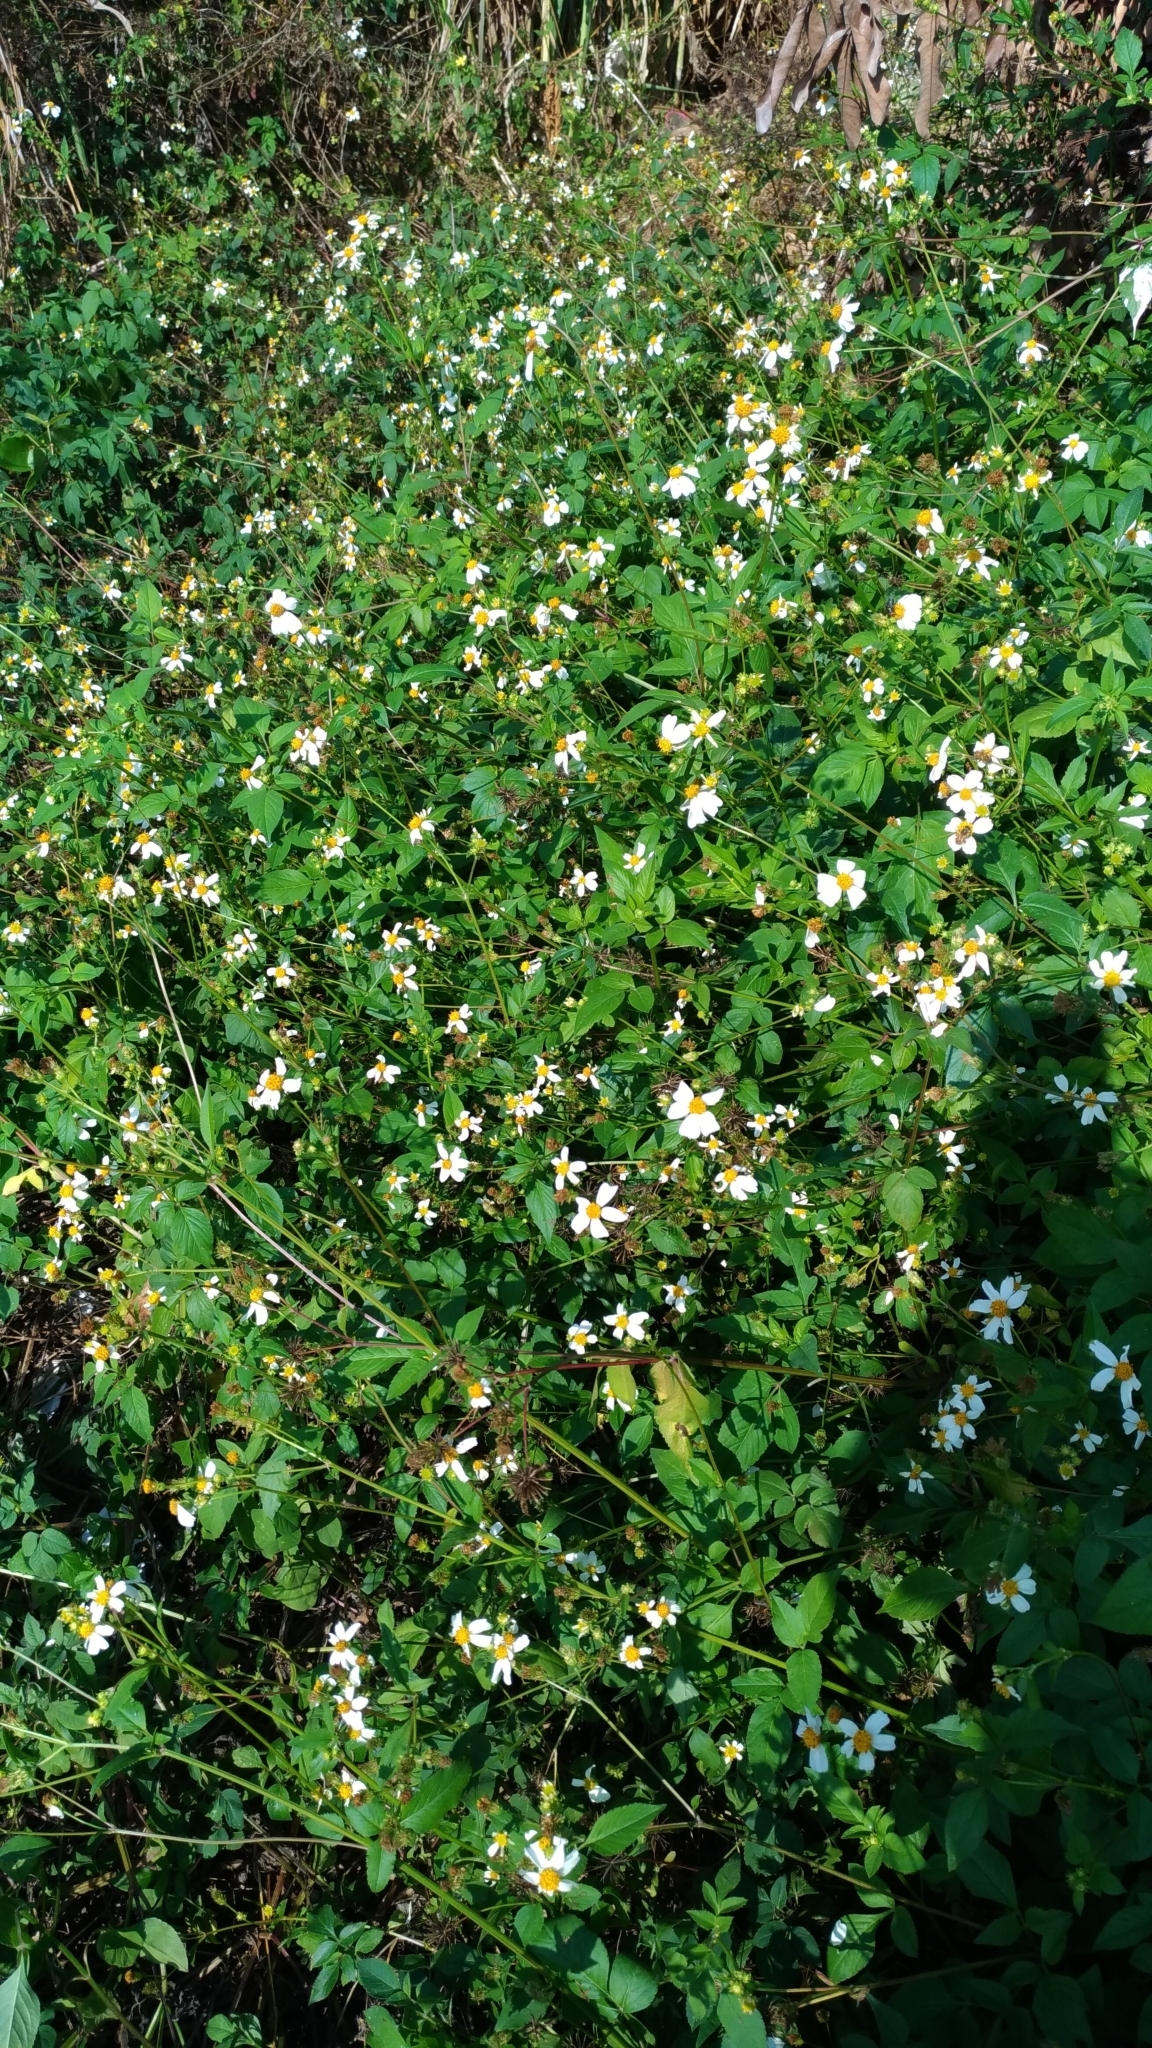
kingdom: Plantae
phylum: Tracheophyta
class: Magnoliopsida
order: Asterales
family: Asteraceae
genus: Bidens
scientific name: Bidens alba
